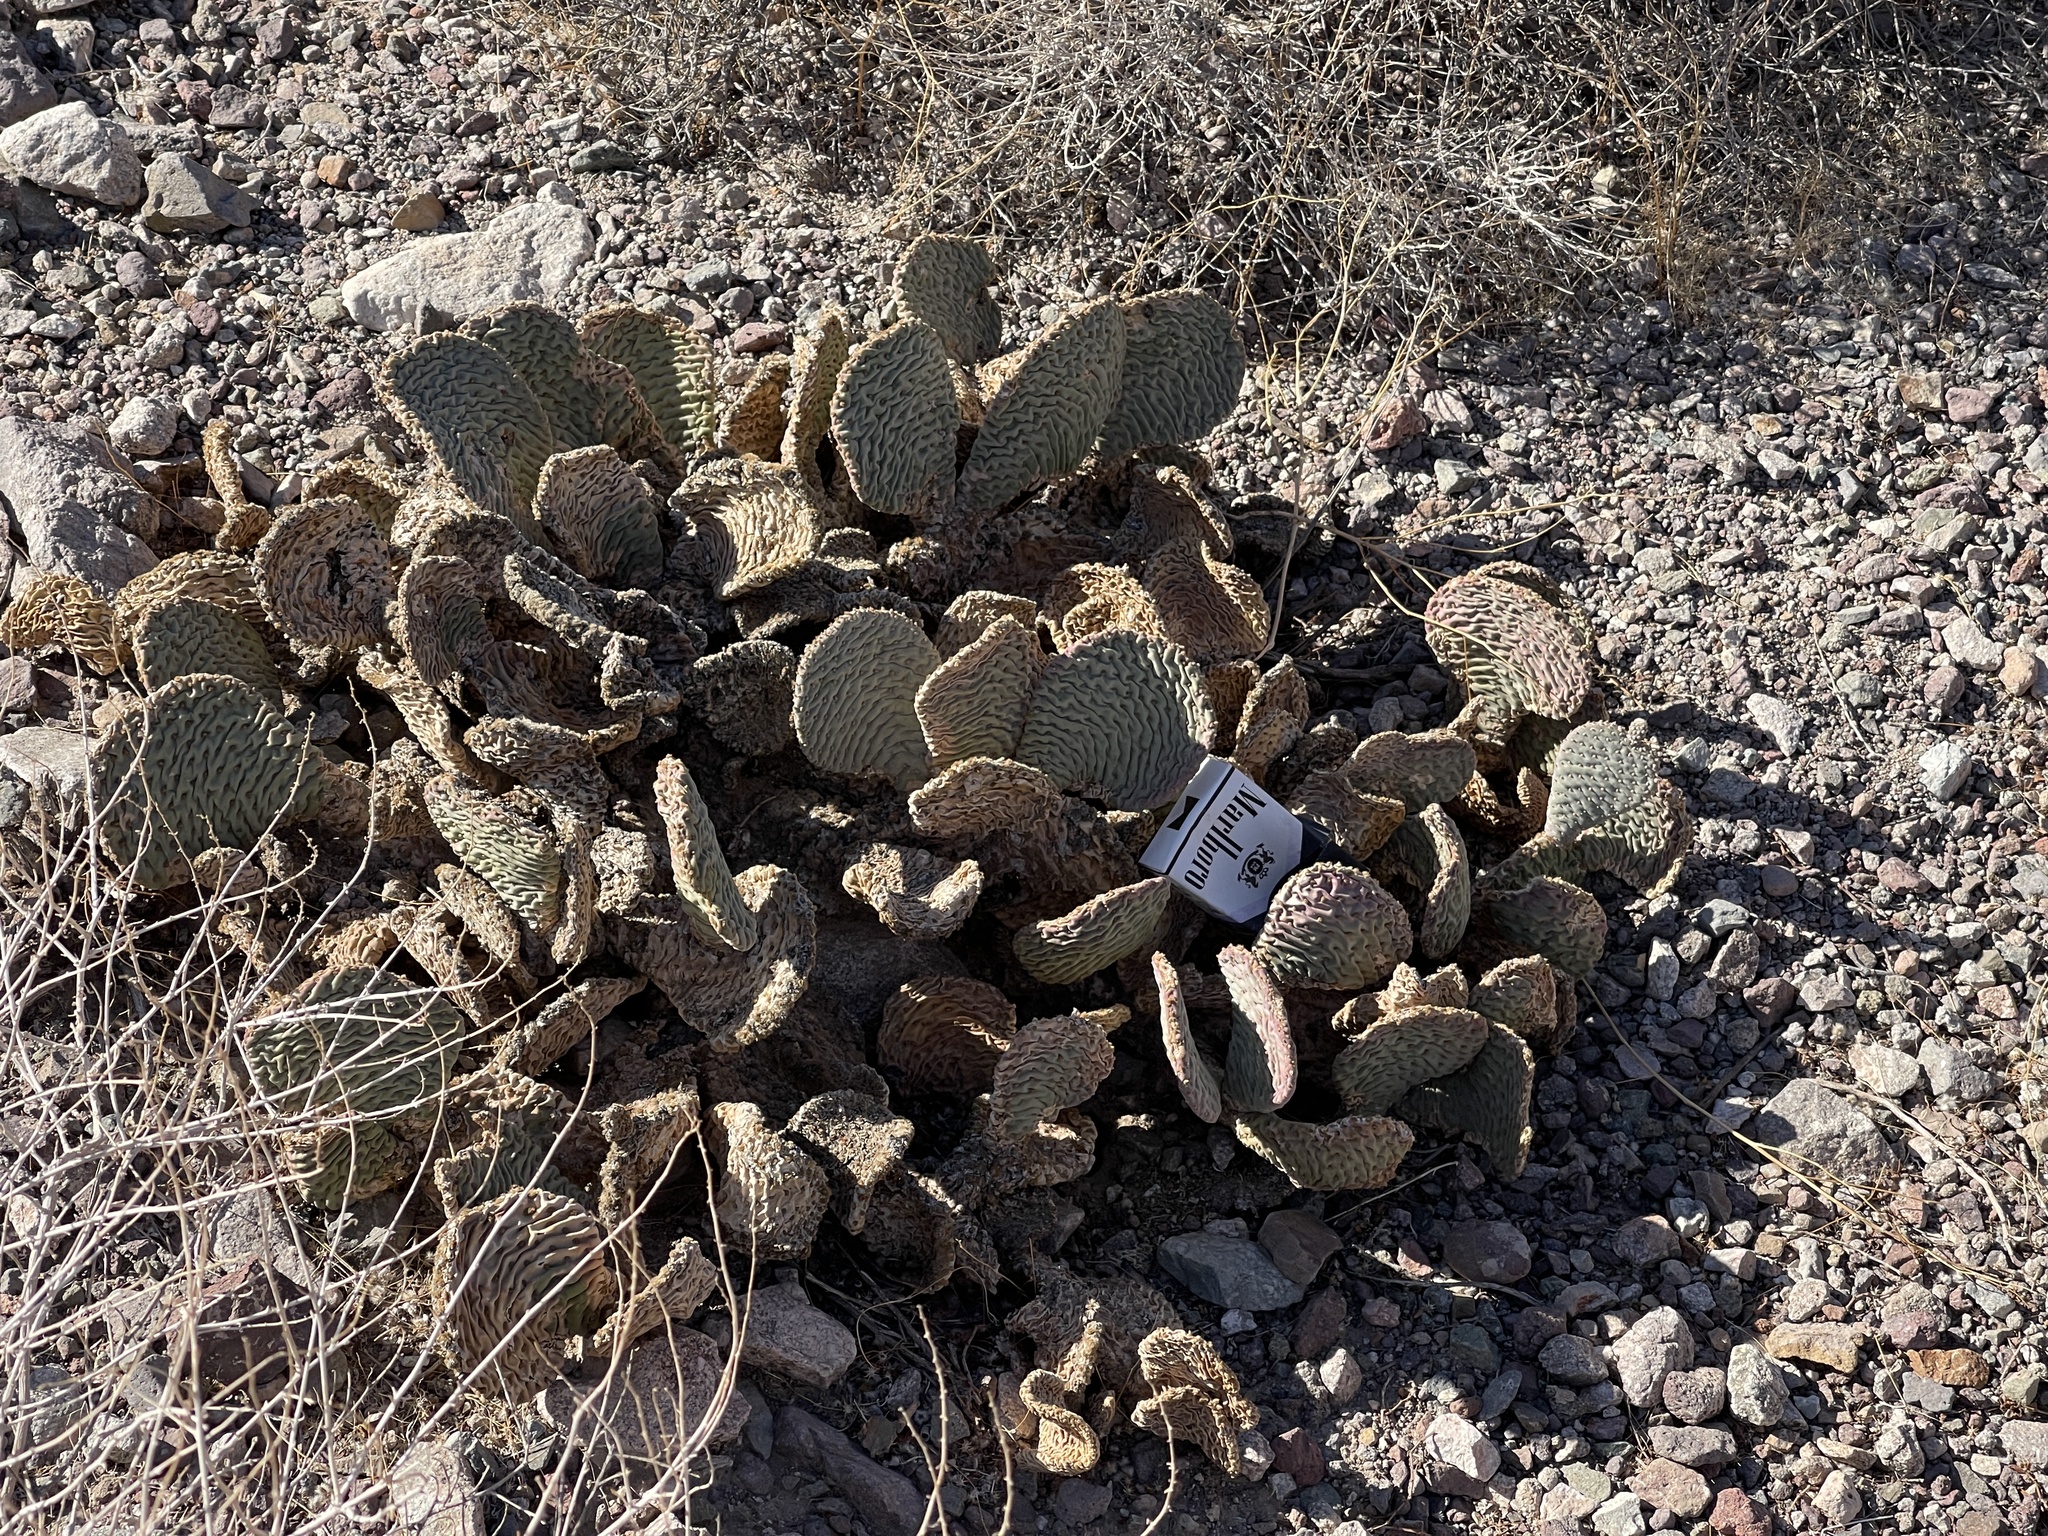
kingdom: Plantae
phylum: Tracheophyta
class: Magnoliopsida
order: Caryophyllales
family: Cactaceae
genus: Opuntia
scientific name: Opuntia basilaris
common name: Beavertail prickly-pear
